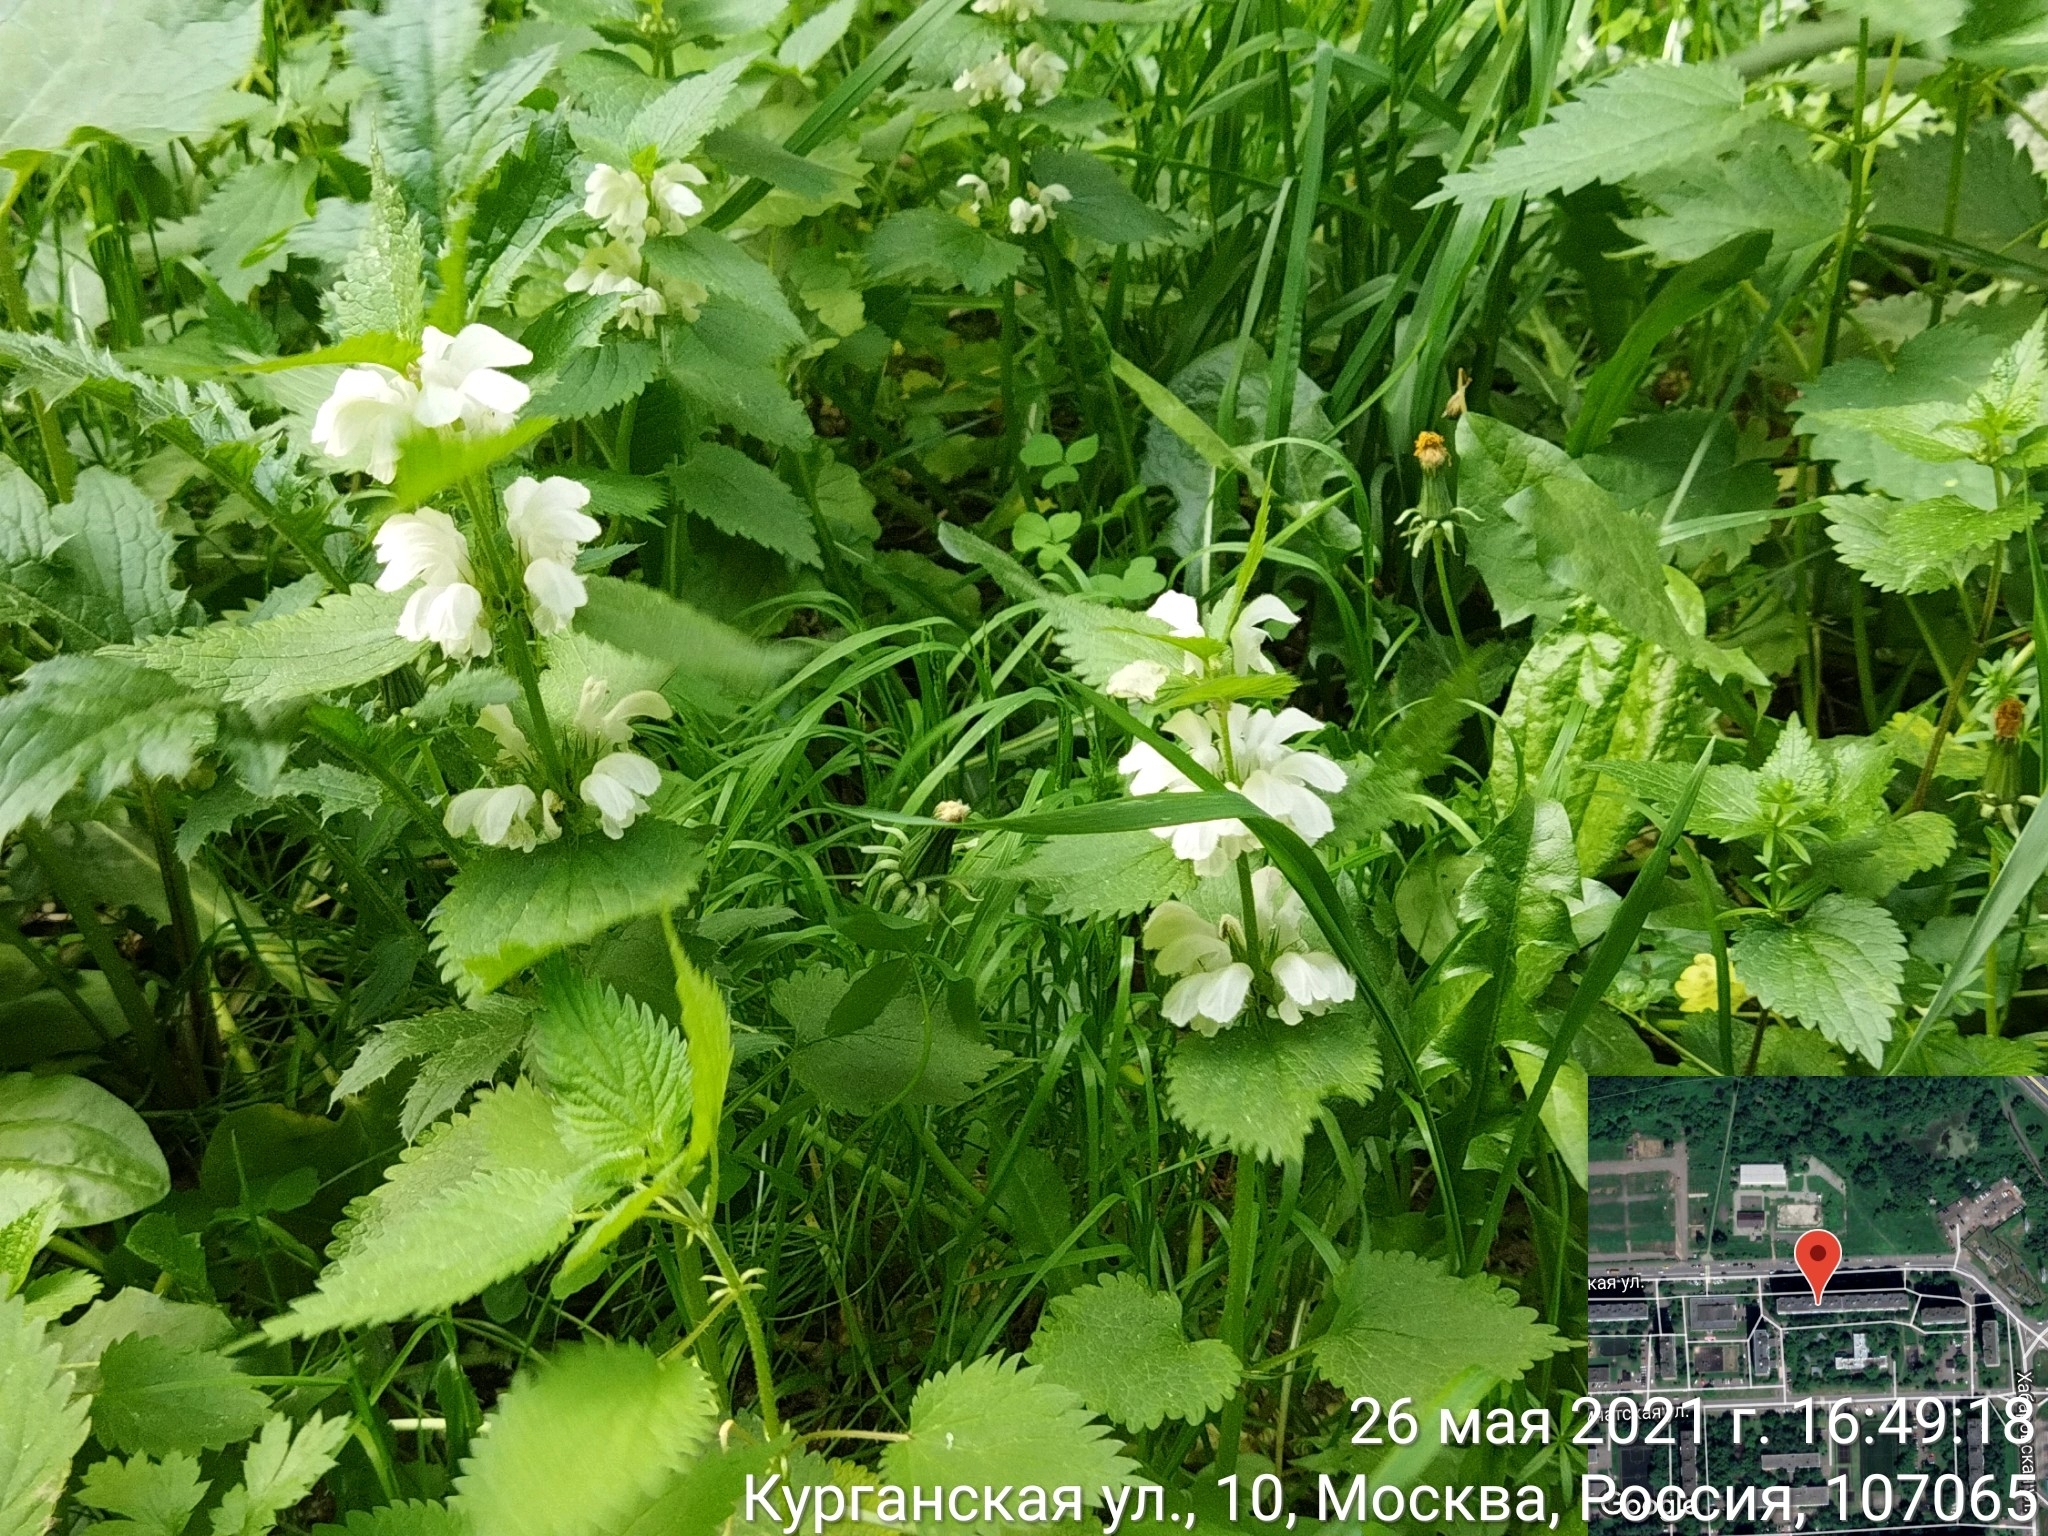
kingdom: Plantae
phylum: Tracheophyta
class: Magnoliopsida
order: Lamiales
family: Lamiaceae
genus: Lamium
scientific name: Lamium album
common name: White dead-nettle
